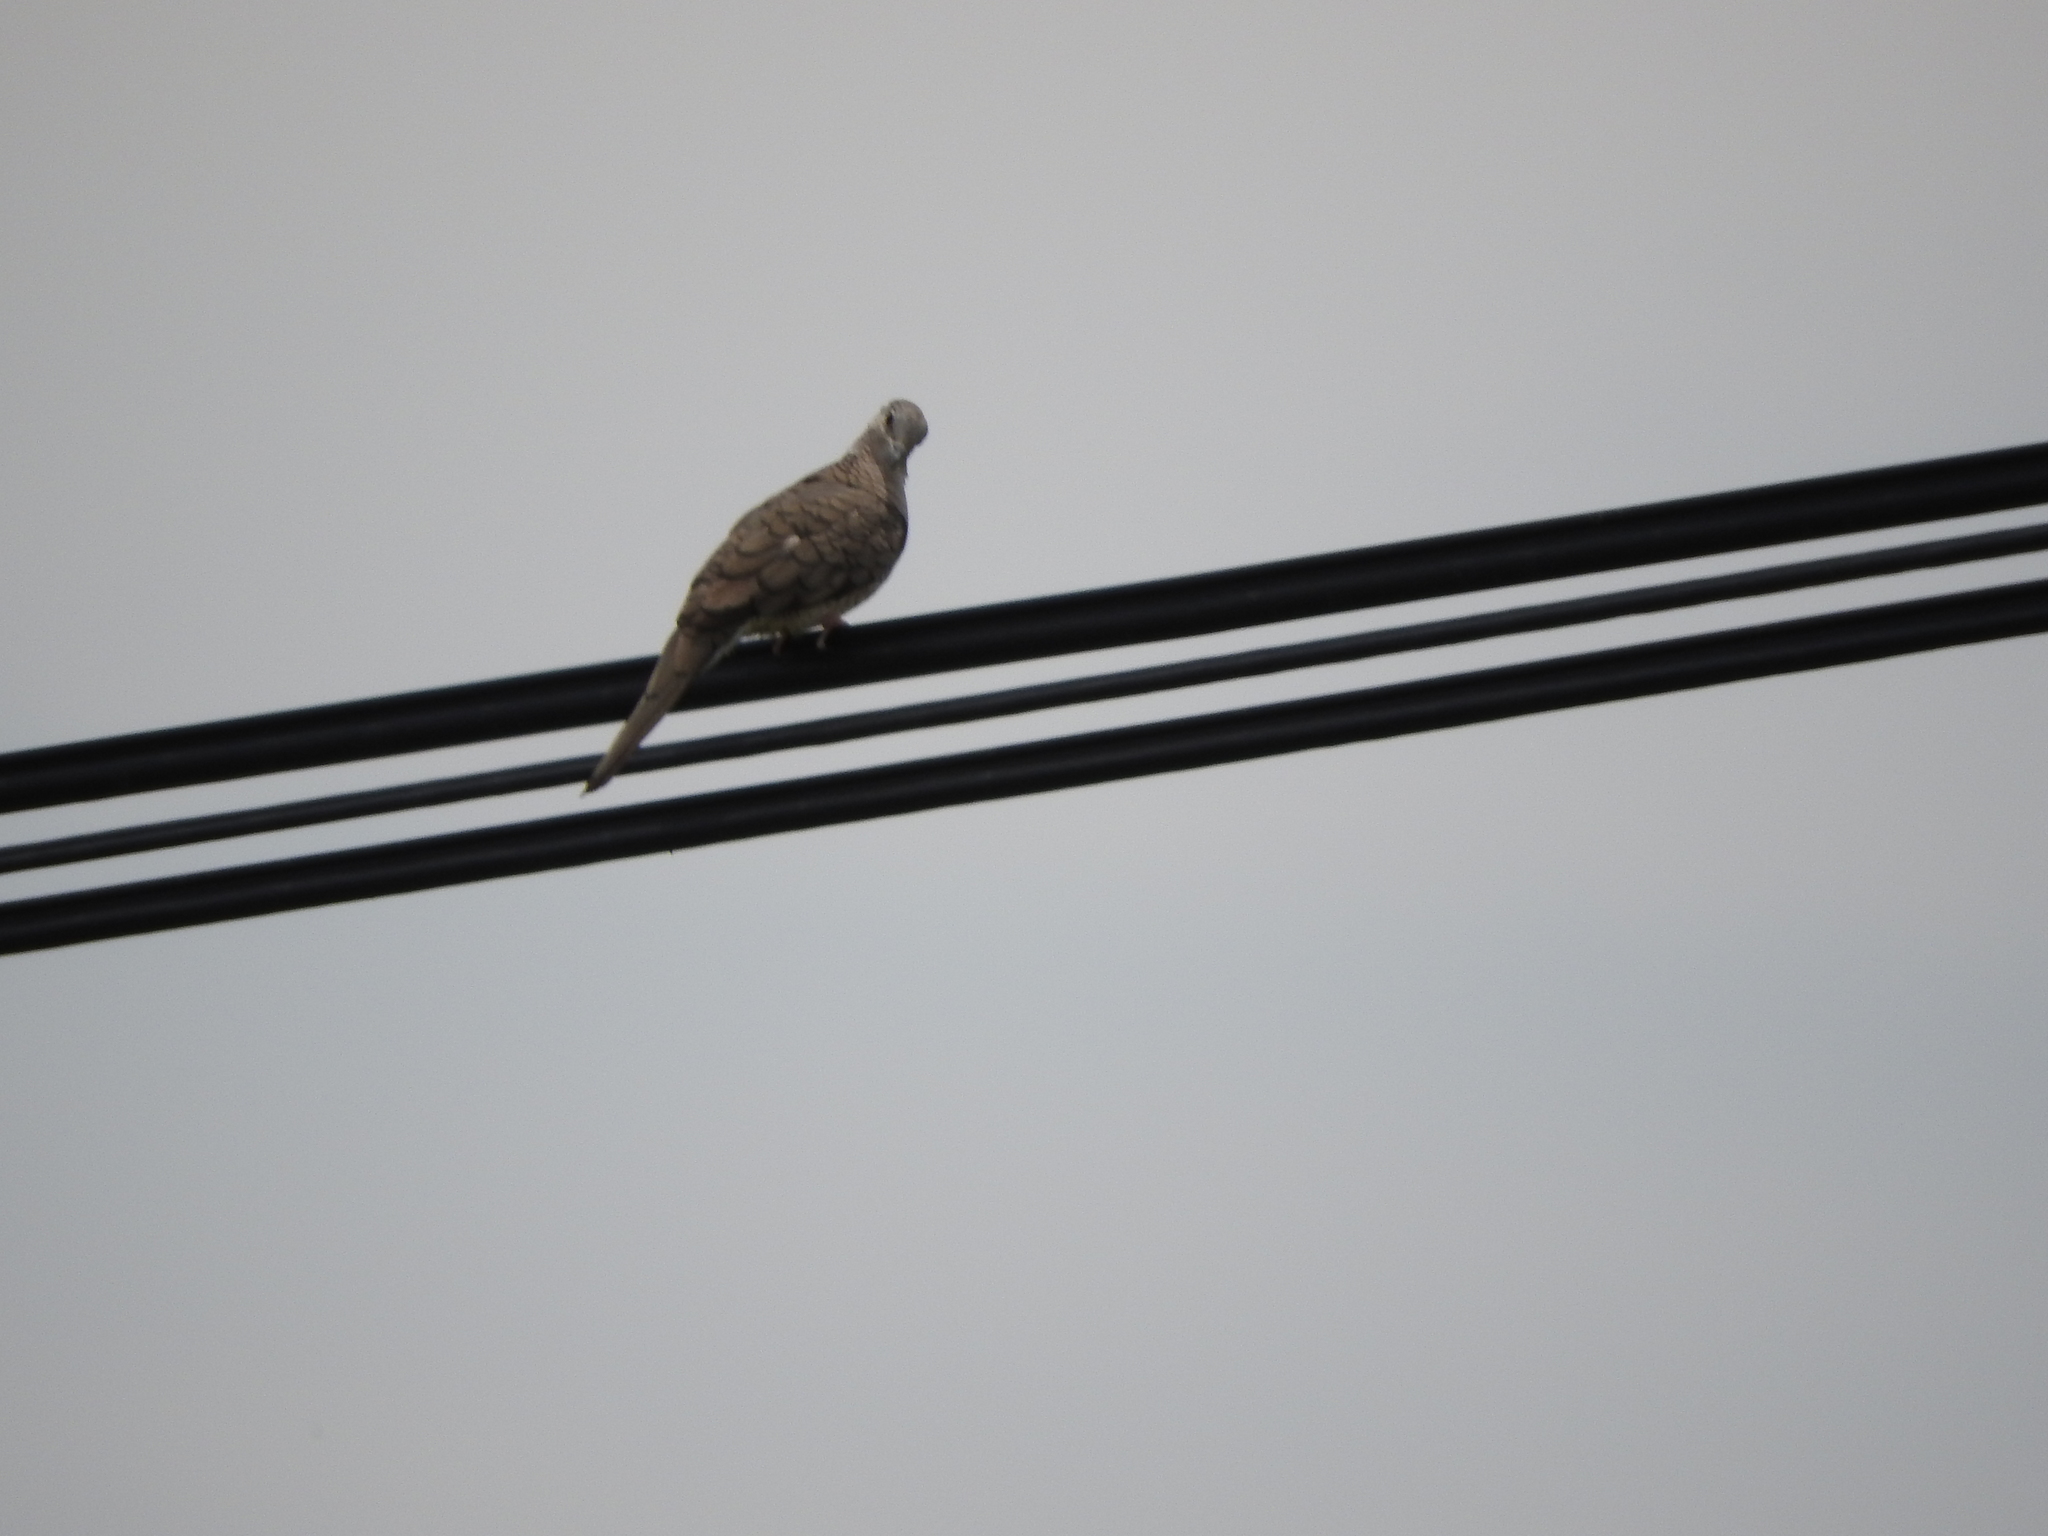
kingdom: Animalia
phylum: Chordata
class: Aves
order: Columbiformes
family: Columbidae
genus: Columbina
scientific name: Columbina inca
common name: Inca dove
